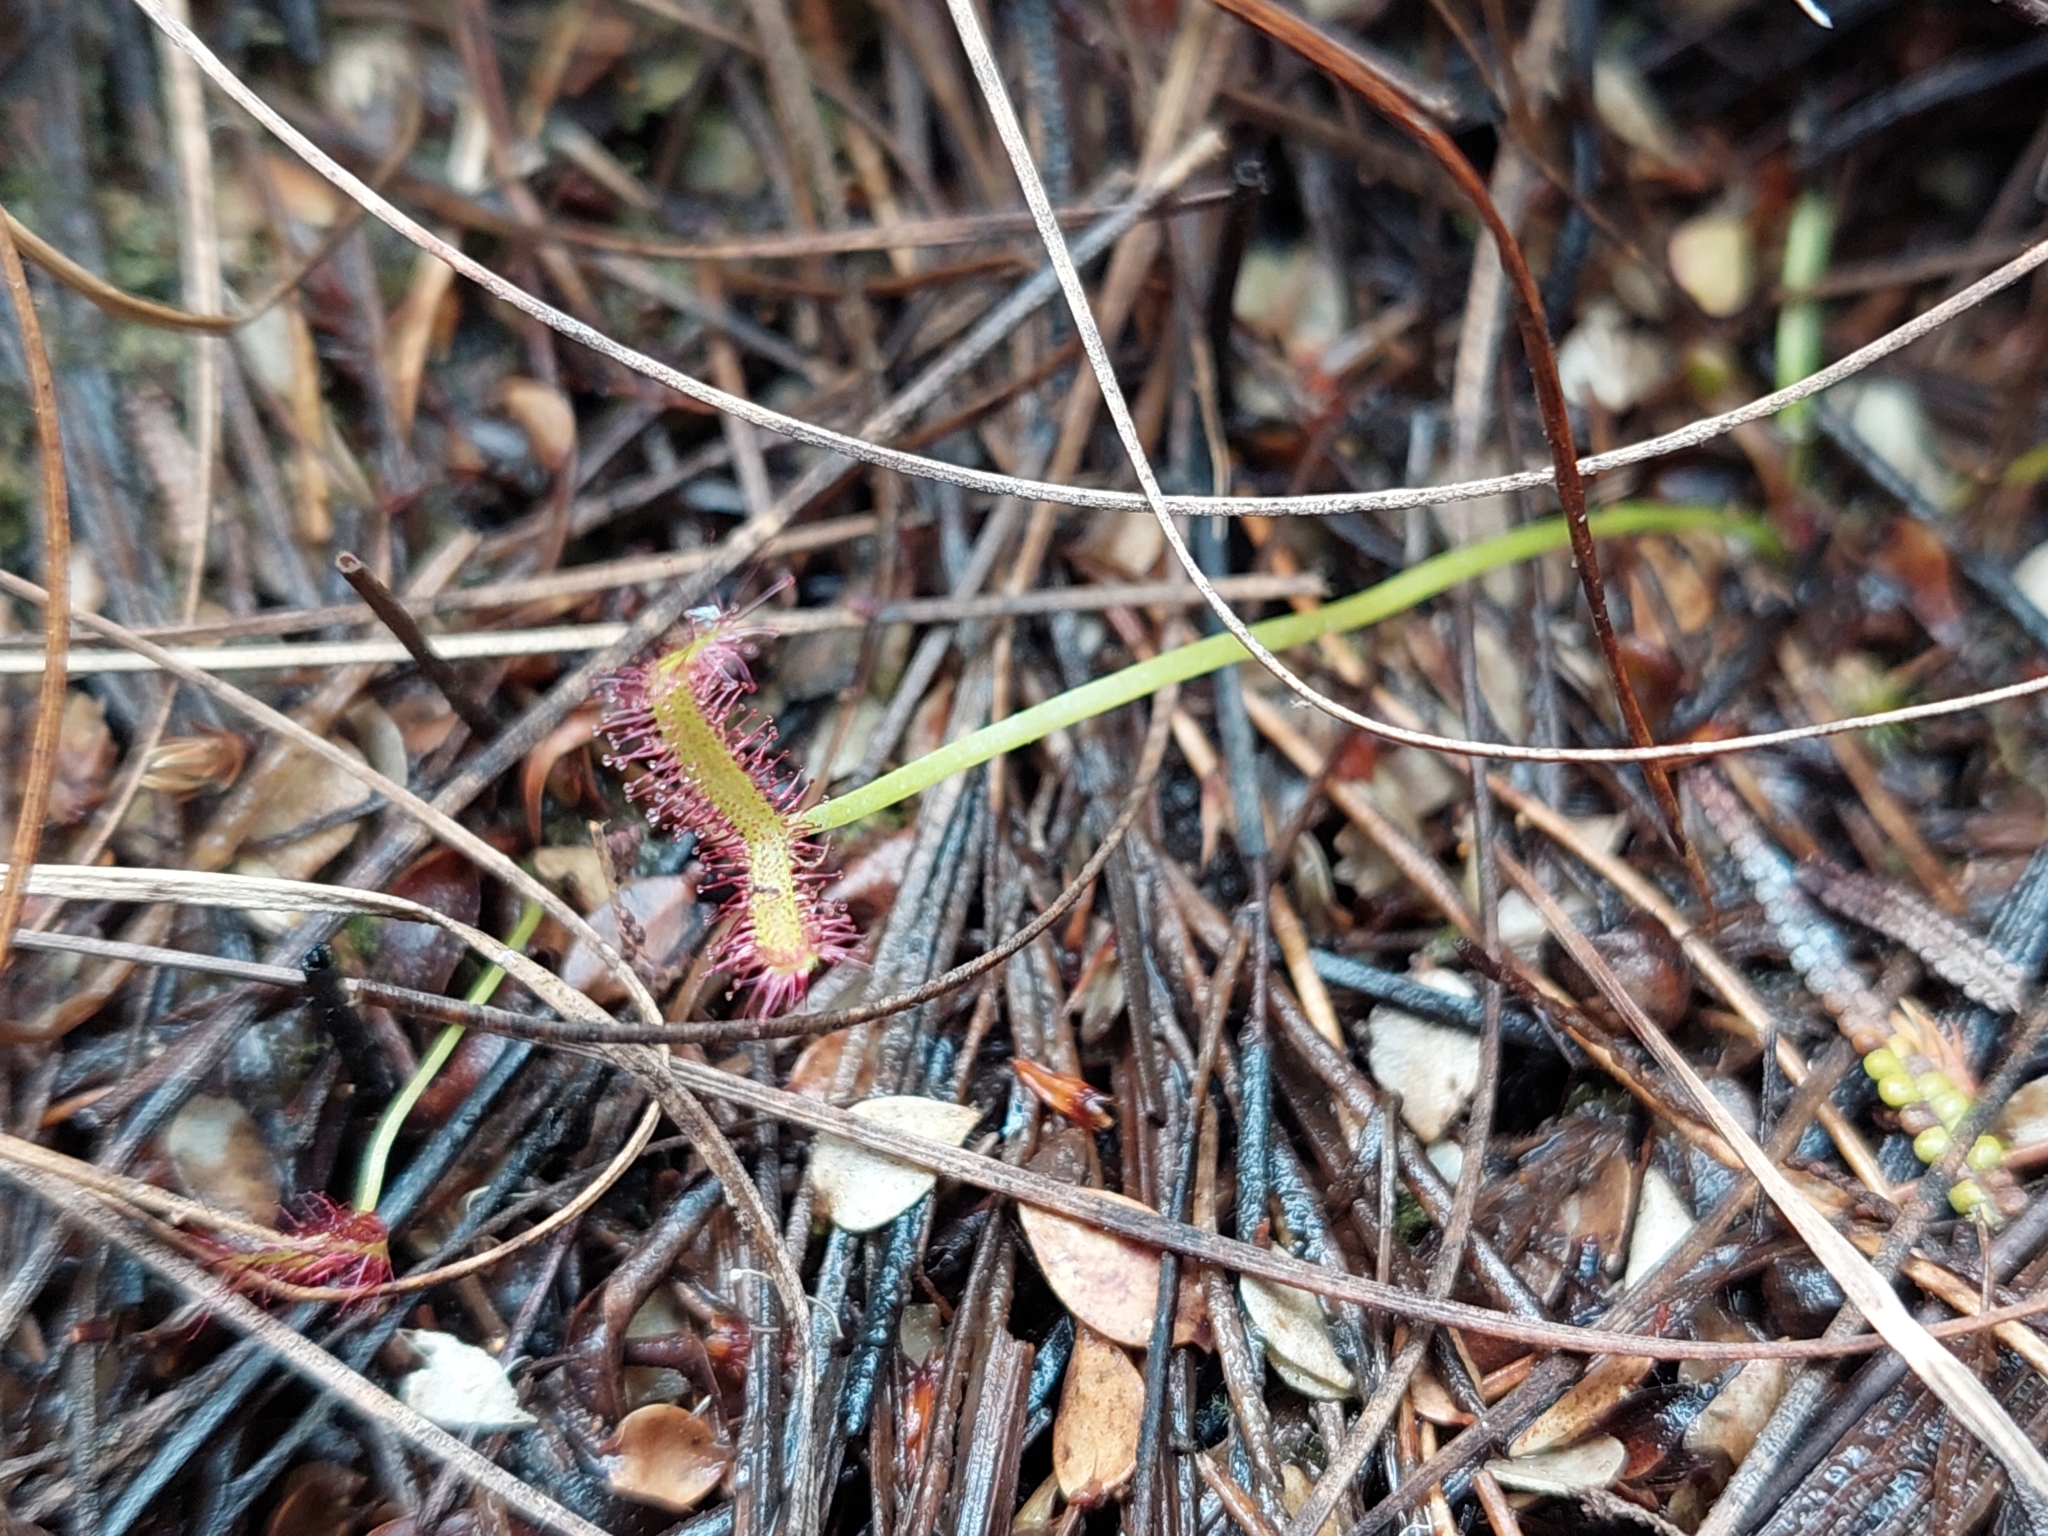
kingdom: Plantae
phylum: Tracheophyta
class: Magnoliopsida
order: Caryophyllales
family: Droseraceae
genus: Drosera
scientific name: Drosera binata
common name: Forked sundew
